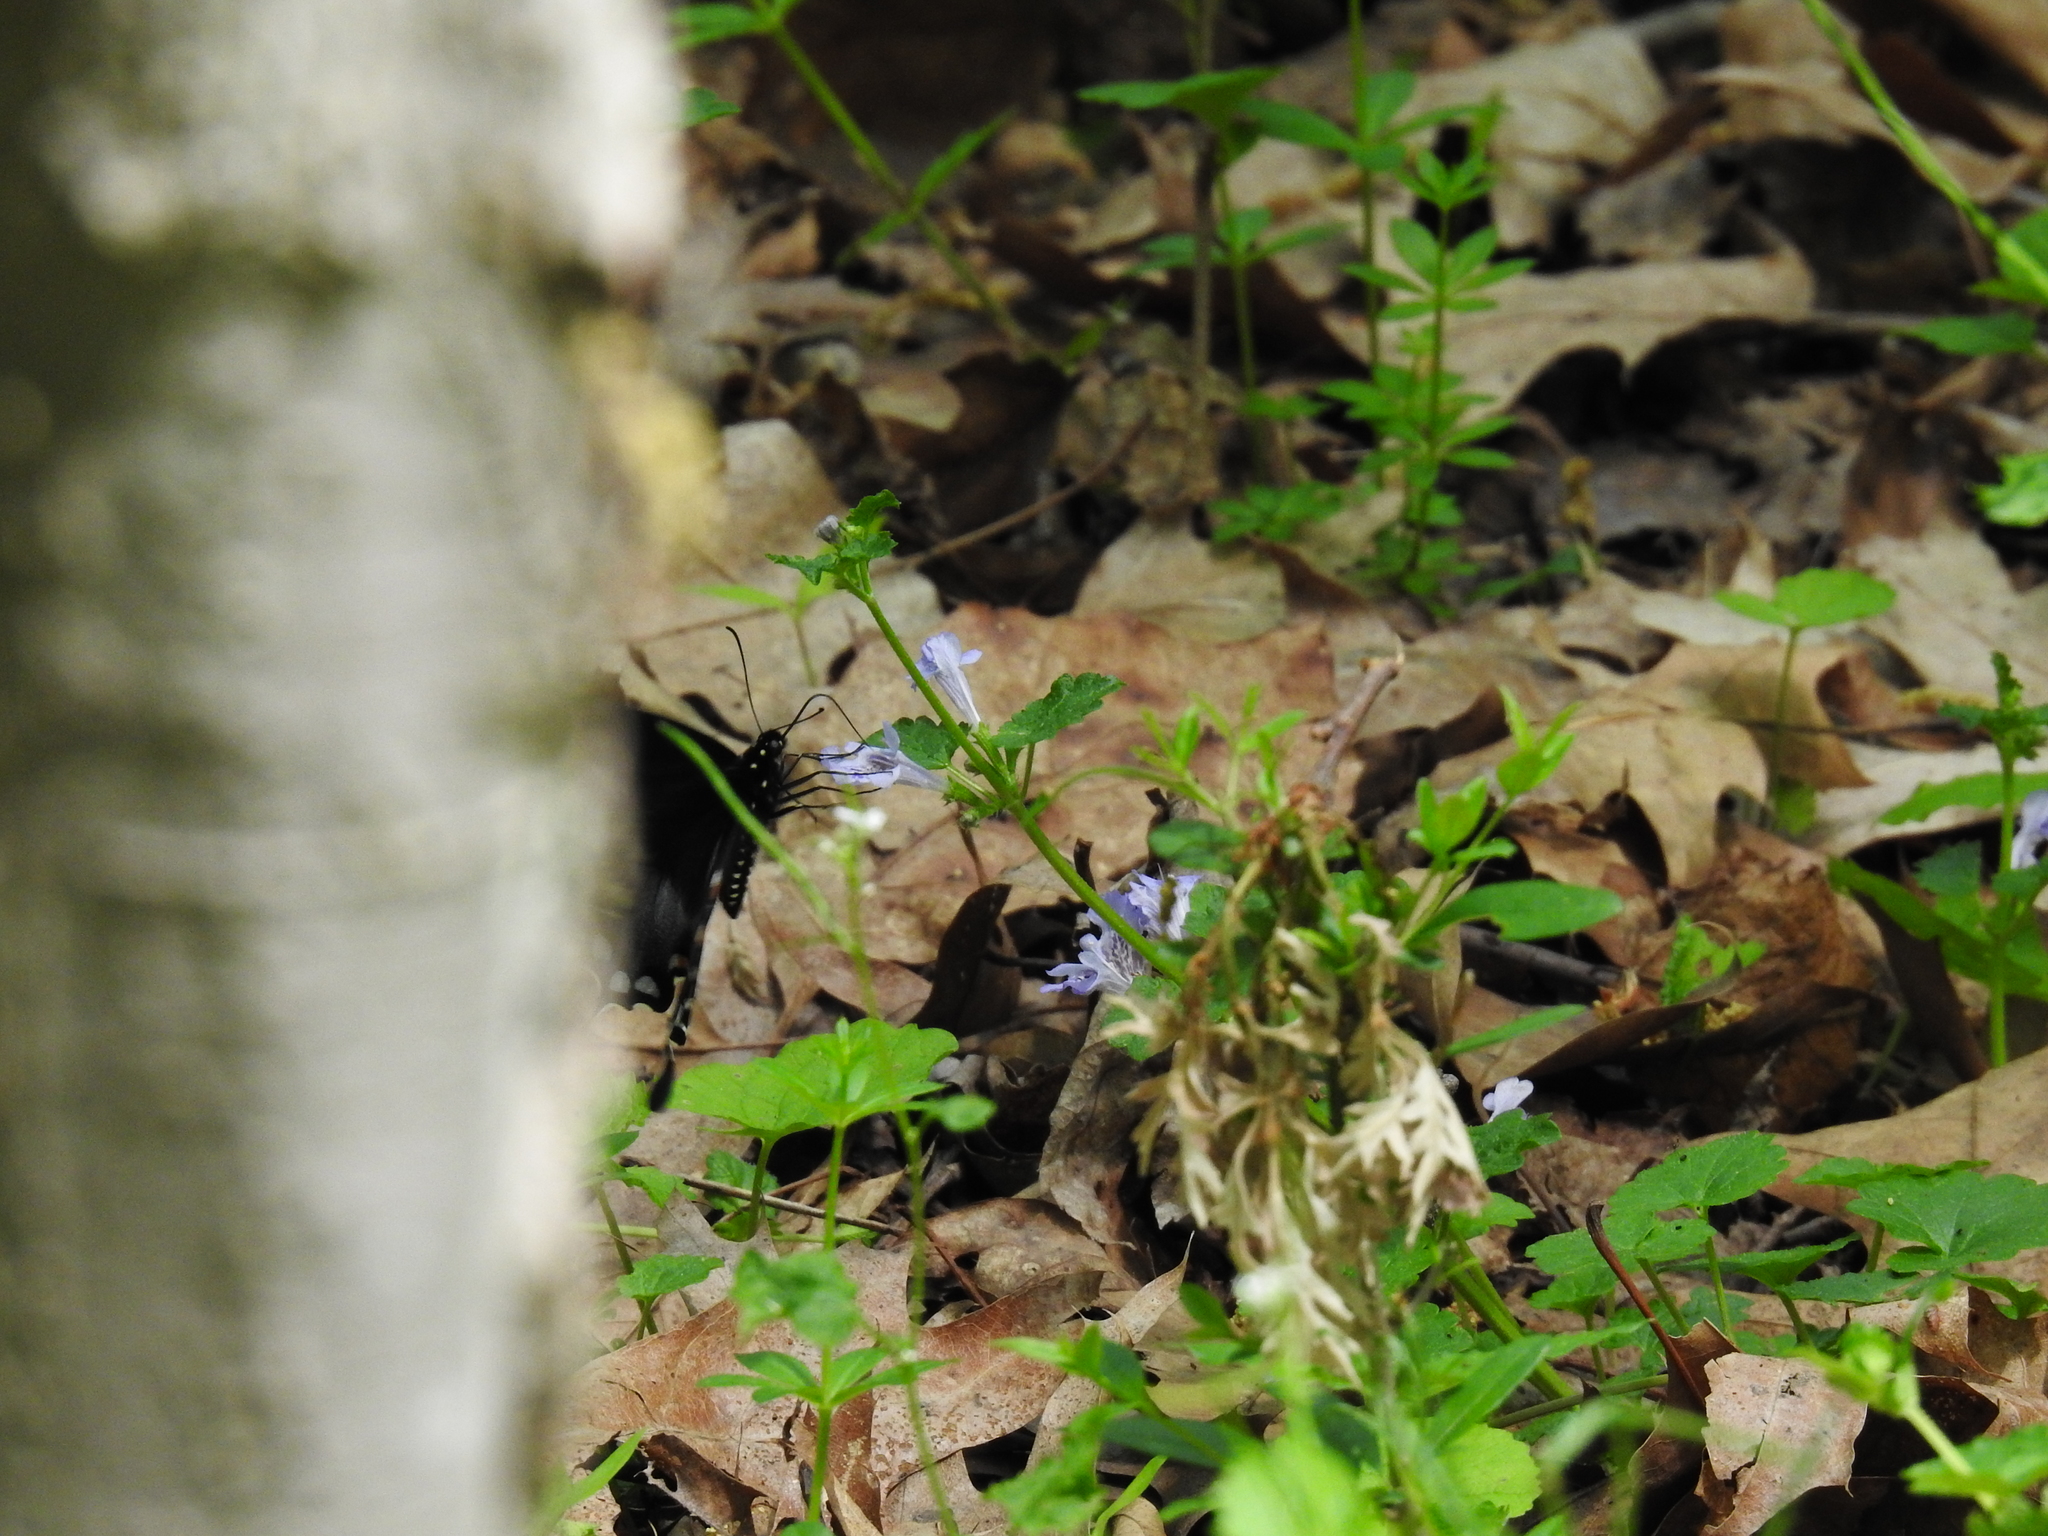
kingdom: Animalia
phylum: Arthropoda
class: Insecta
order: Lepidoptera
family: Papilionidae
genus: Papilio
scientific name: Papilio troilus
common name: Spicebush swallowtail
